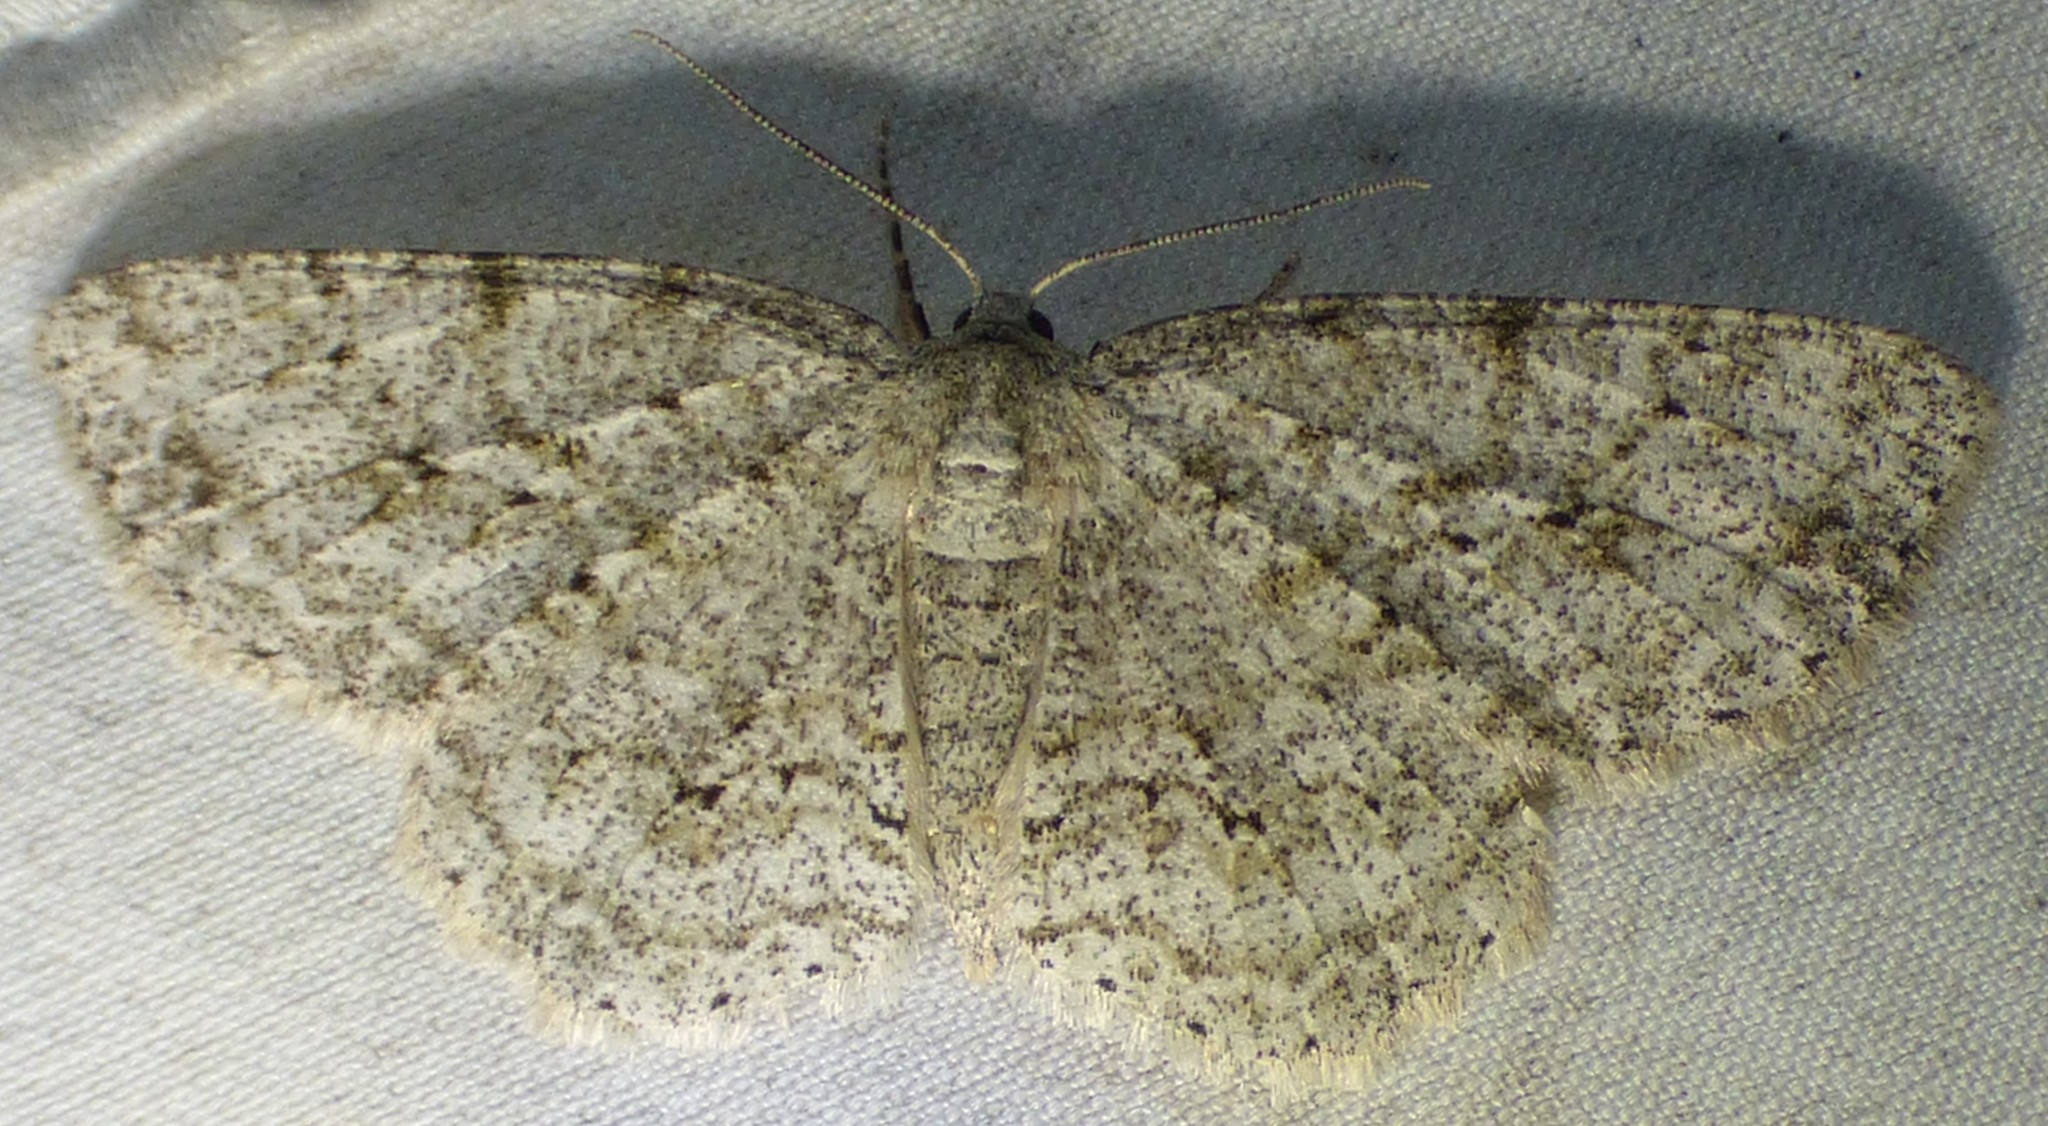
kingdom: Animalia
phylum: Arthropoda
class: Insecta
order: Lepidoptera
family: Geometridae
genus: Ectropis
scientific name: Ectropis crepuscularia
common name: Engrailed
